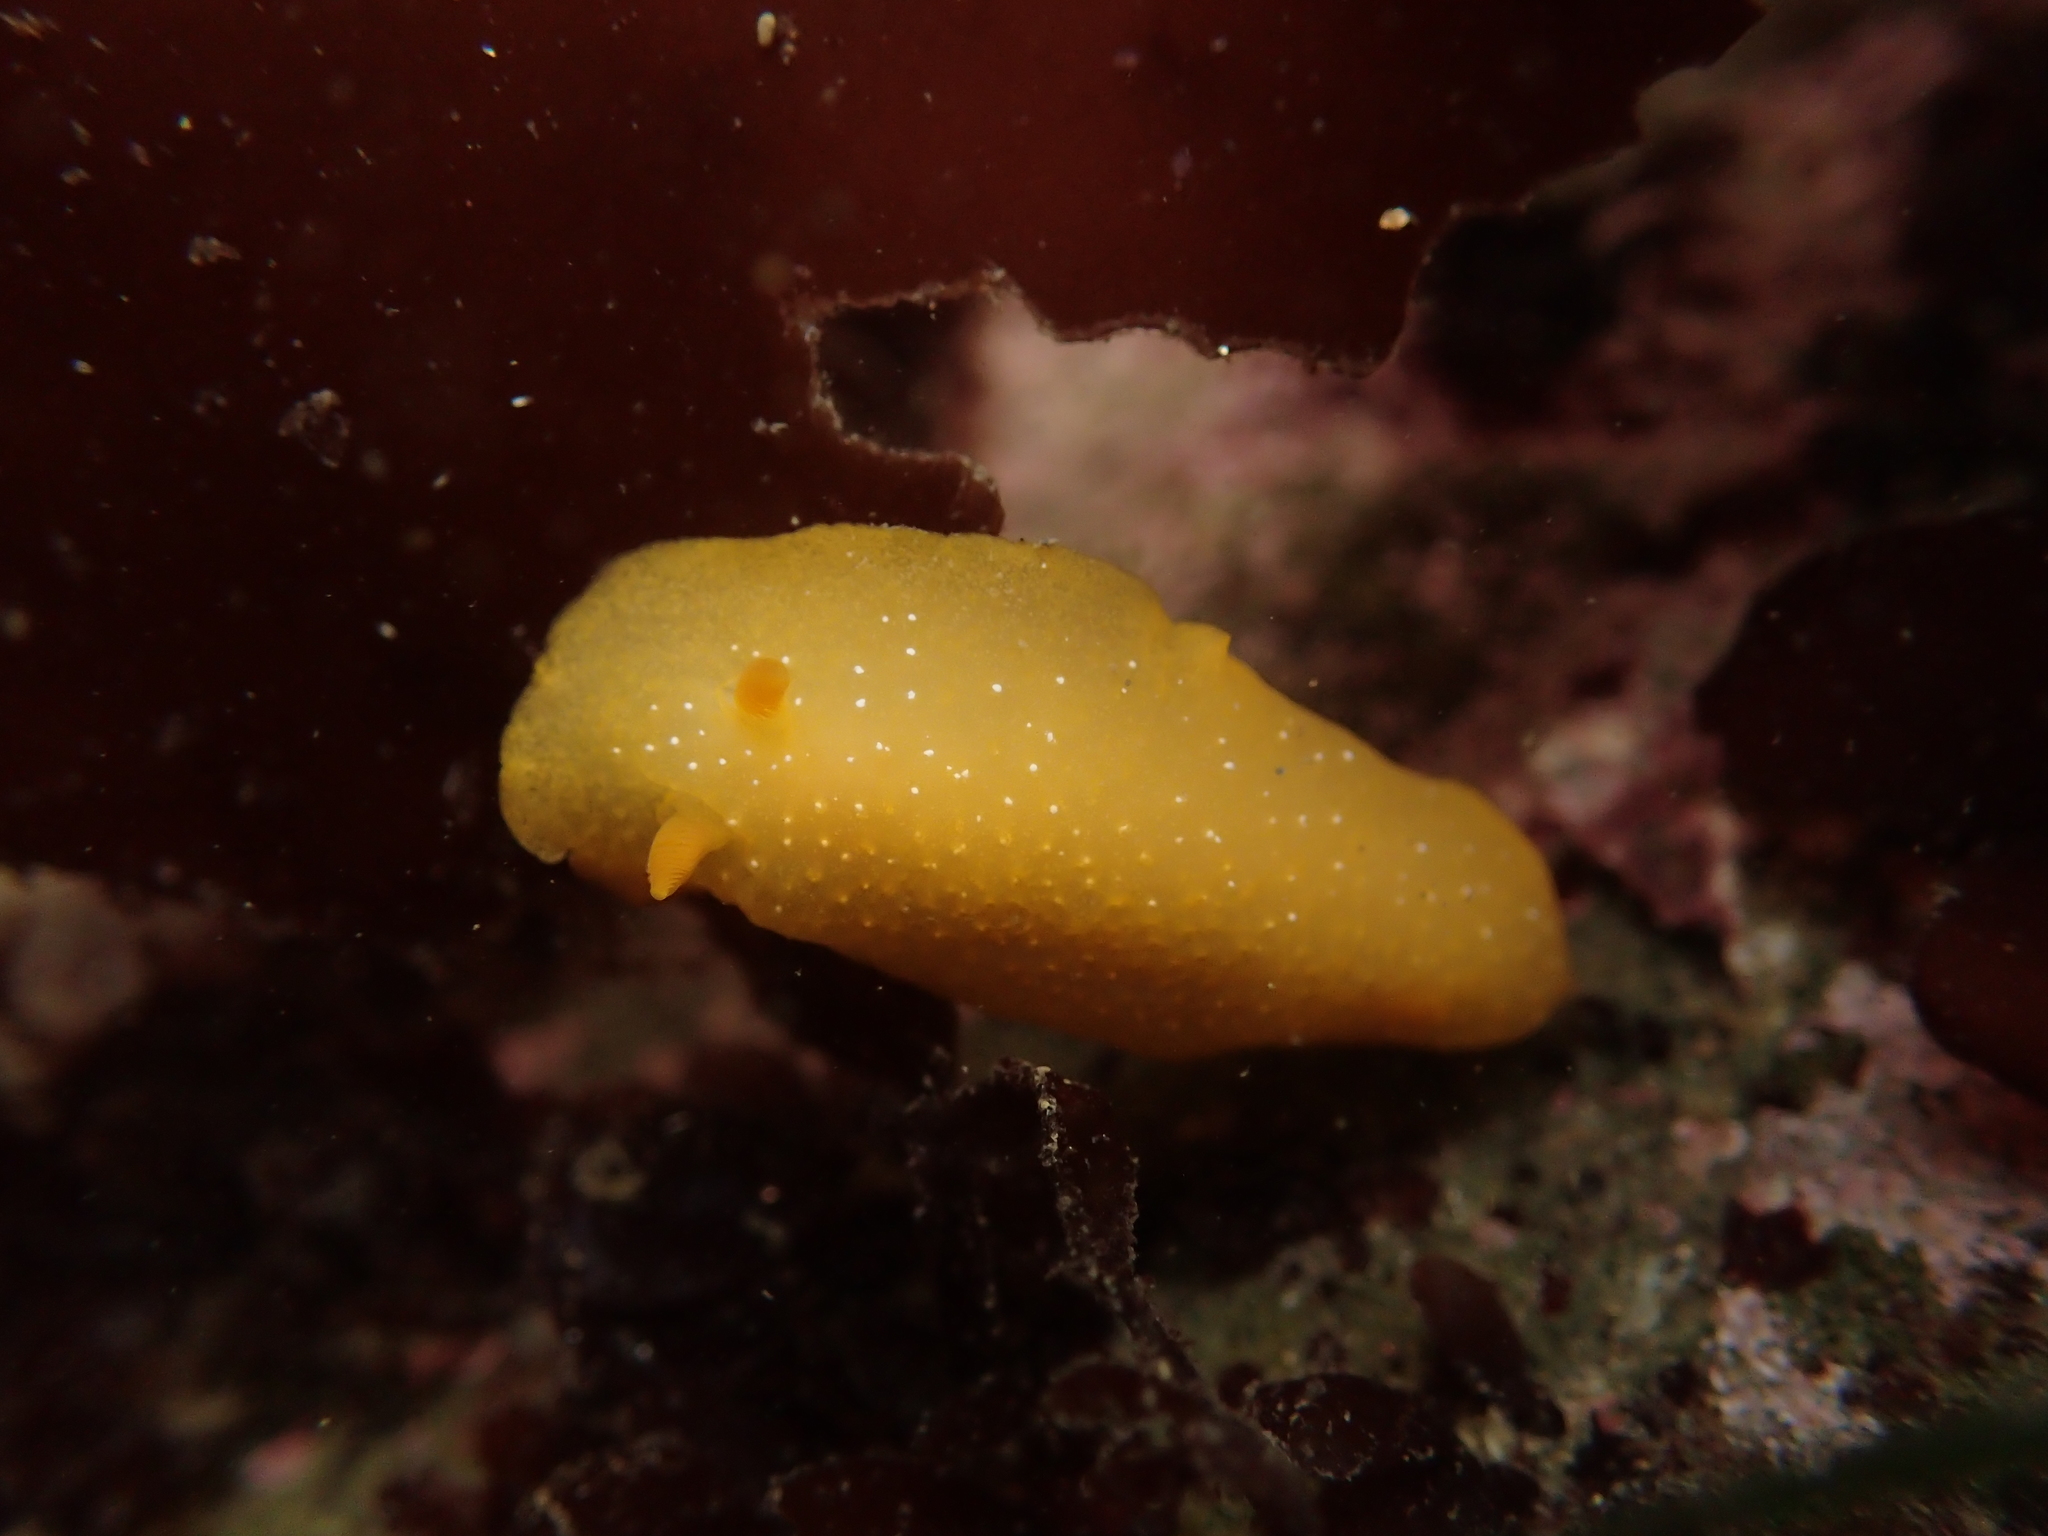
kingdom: Animalia
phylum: Mollusca
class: Gastropoda
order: Nudibranchia
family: Dendrodorididae
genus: Doriopsilla
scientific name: Doriopsilla fulva
